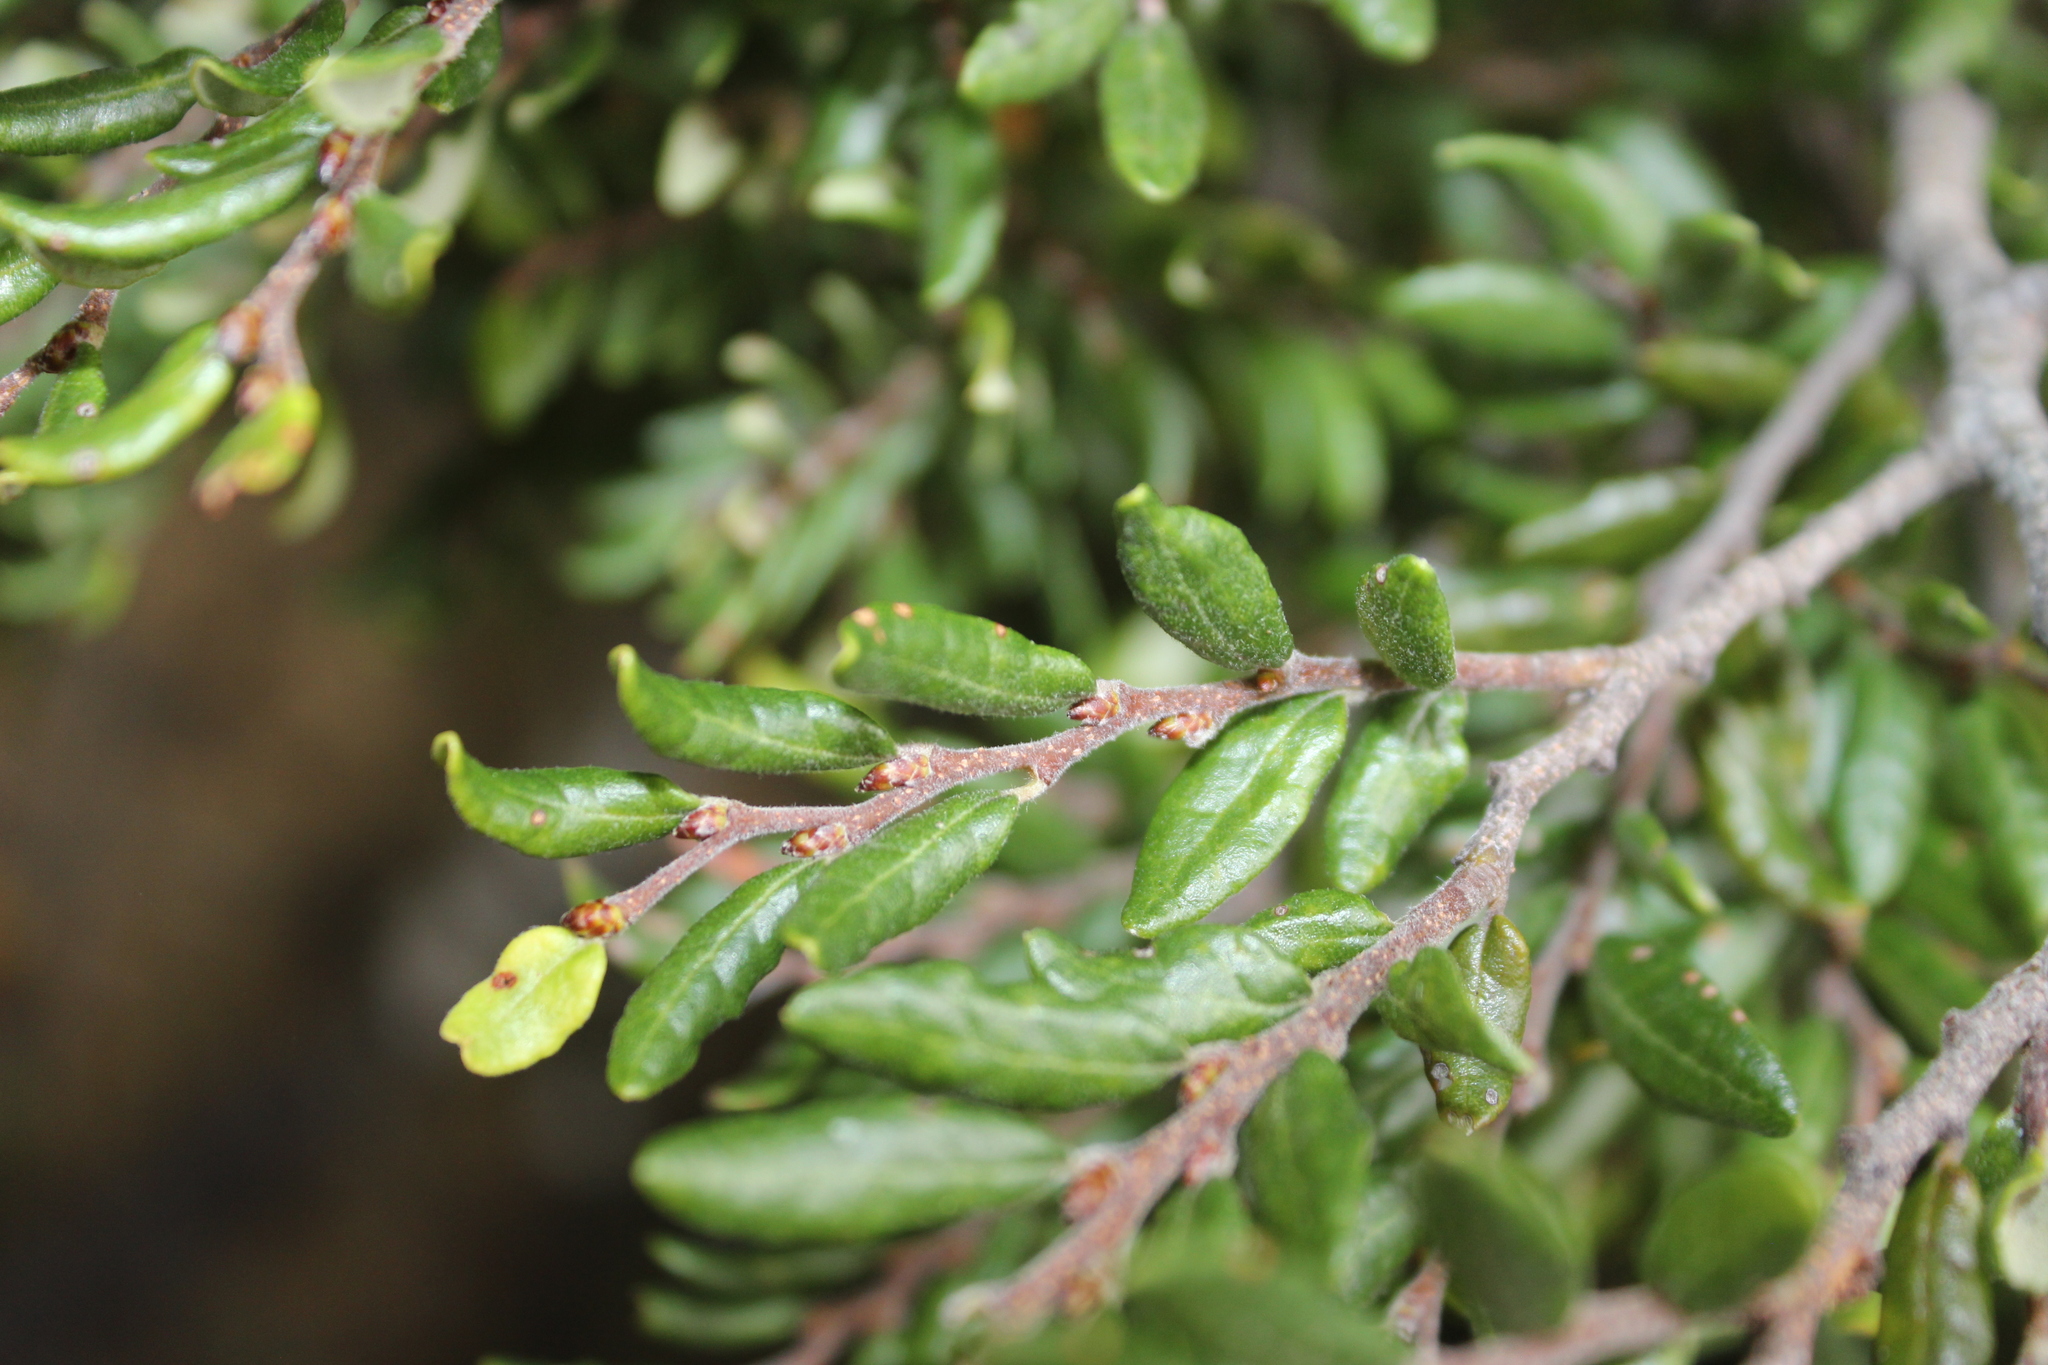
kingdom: Plantae
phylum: Tracheophyta
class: Magnoliopsida
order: Fagales
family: Nothofagaceae
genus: Nothofagus
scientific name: Nothofagus solandri
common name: Black beech
